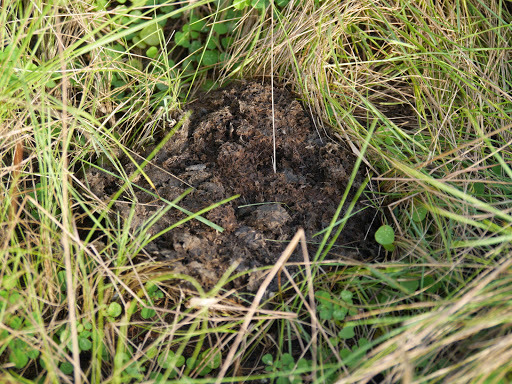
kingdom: Animalia
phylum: Chordata
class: Mammalia
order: Artiodactyla
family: Bovidae
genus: Syncerus
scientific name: Syncerus caffer
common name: African buffalo
